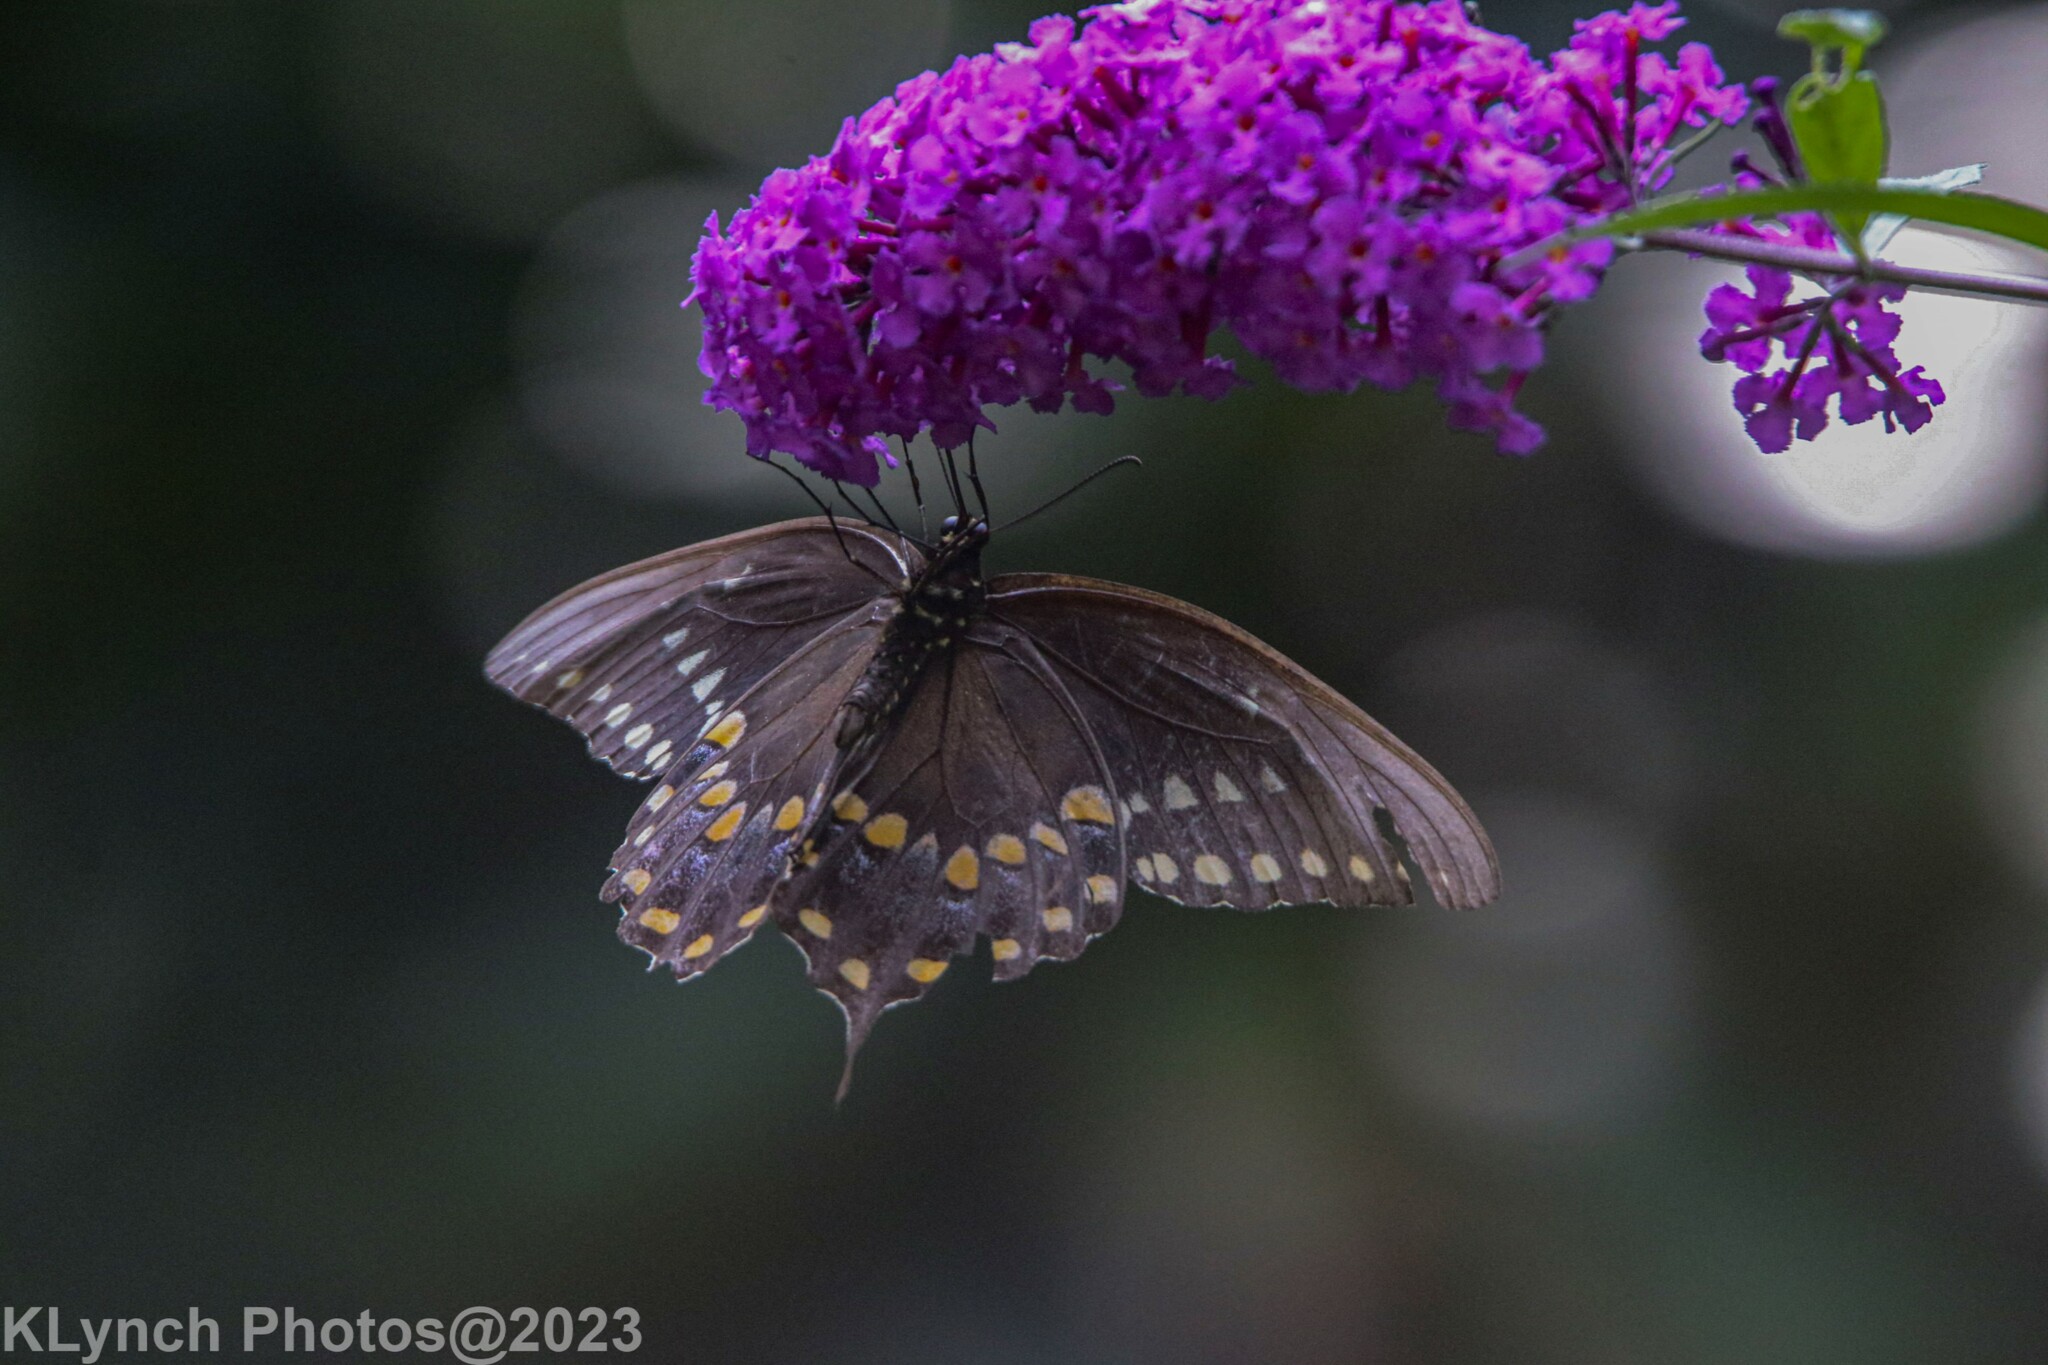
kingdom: Animalia
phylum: Arthropoda
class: Insecta
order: Lepidoptera
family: Papilionidae
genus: Papilio
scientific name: Papilio troilus
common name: Spicebush swallowtail
